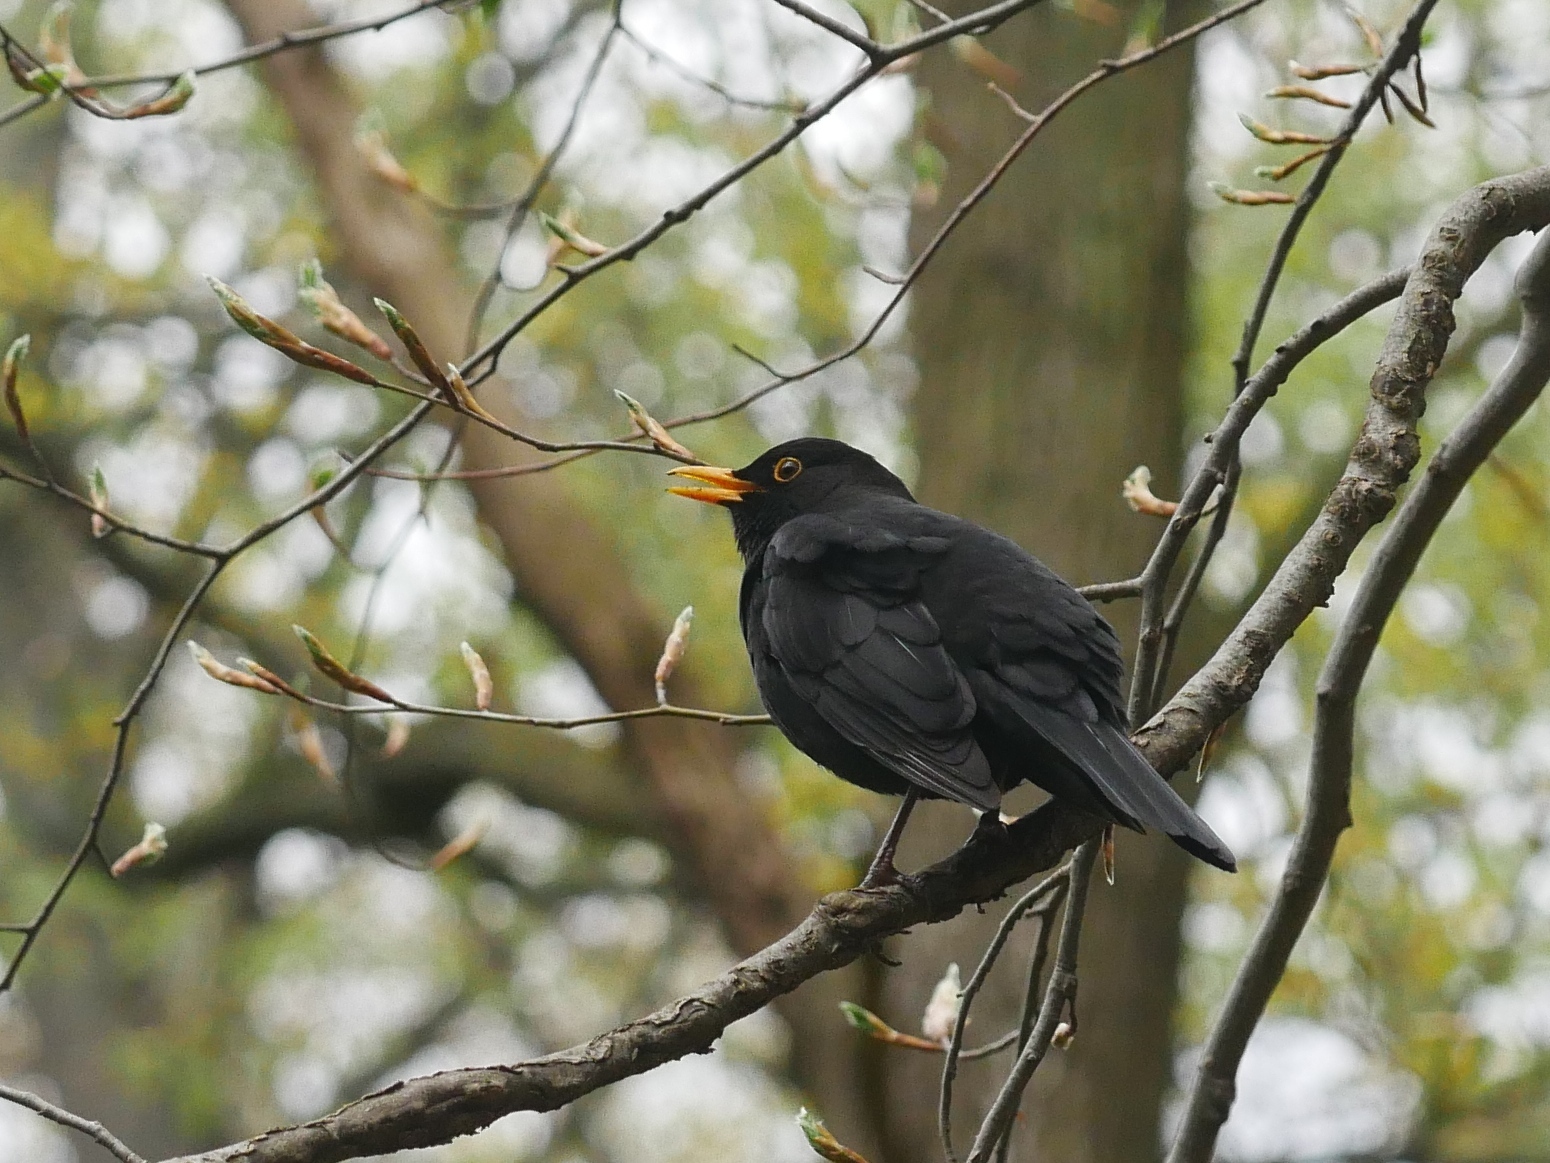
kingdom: Animalia
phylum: Chordata
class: Aves
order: Passeriformes
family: Turdidae
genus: Turdus
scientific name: Turdus merula
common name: Common blackbird
